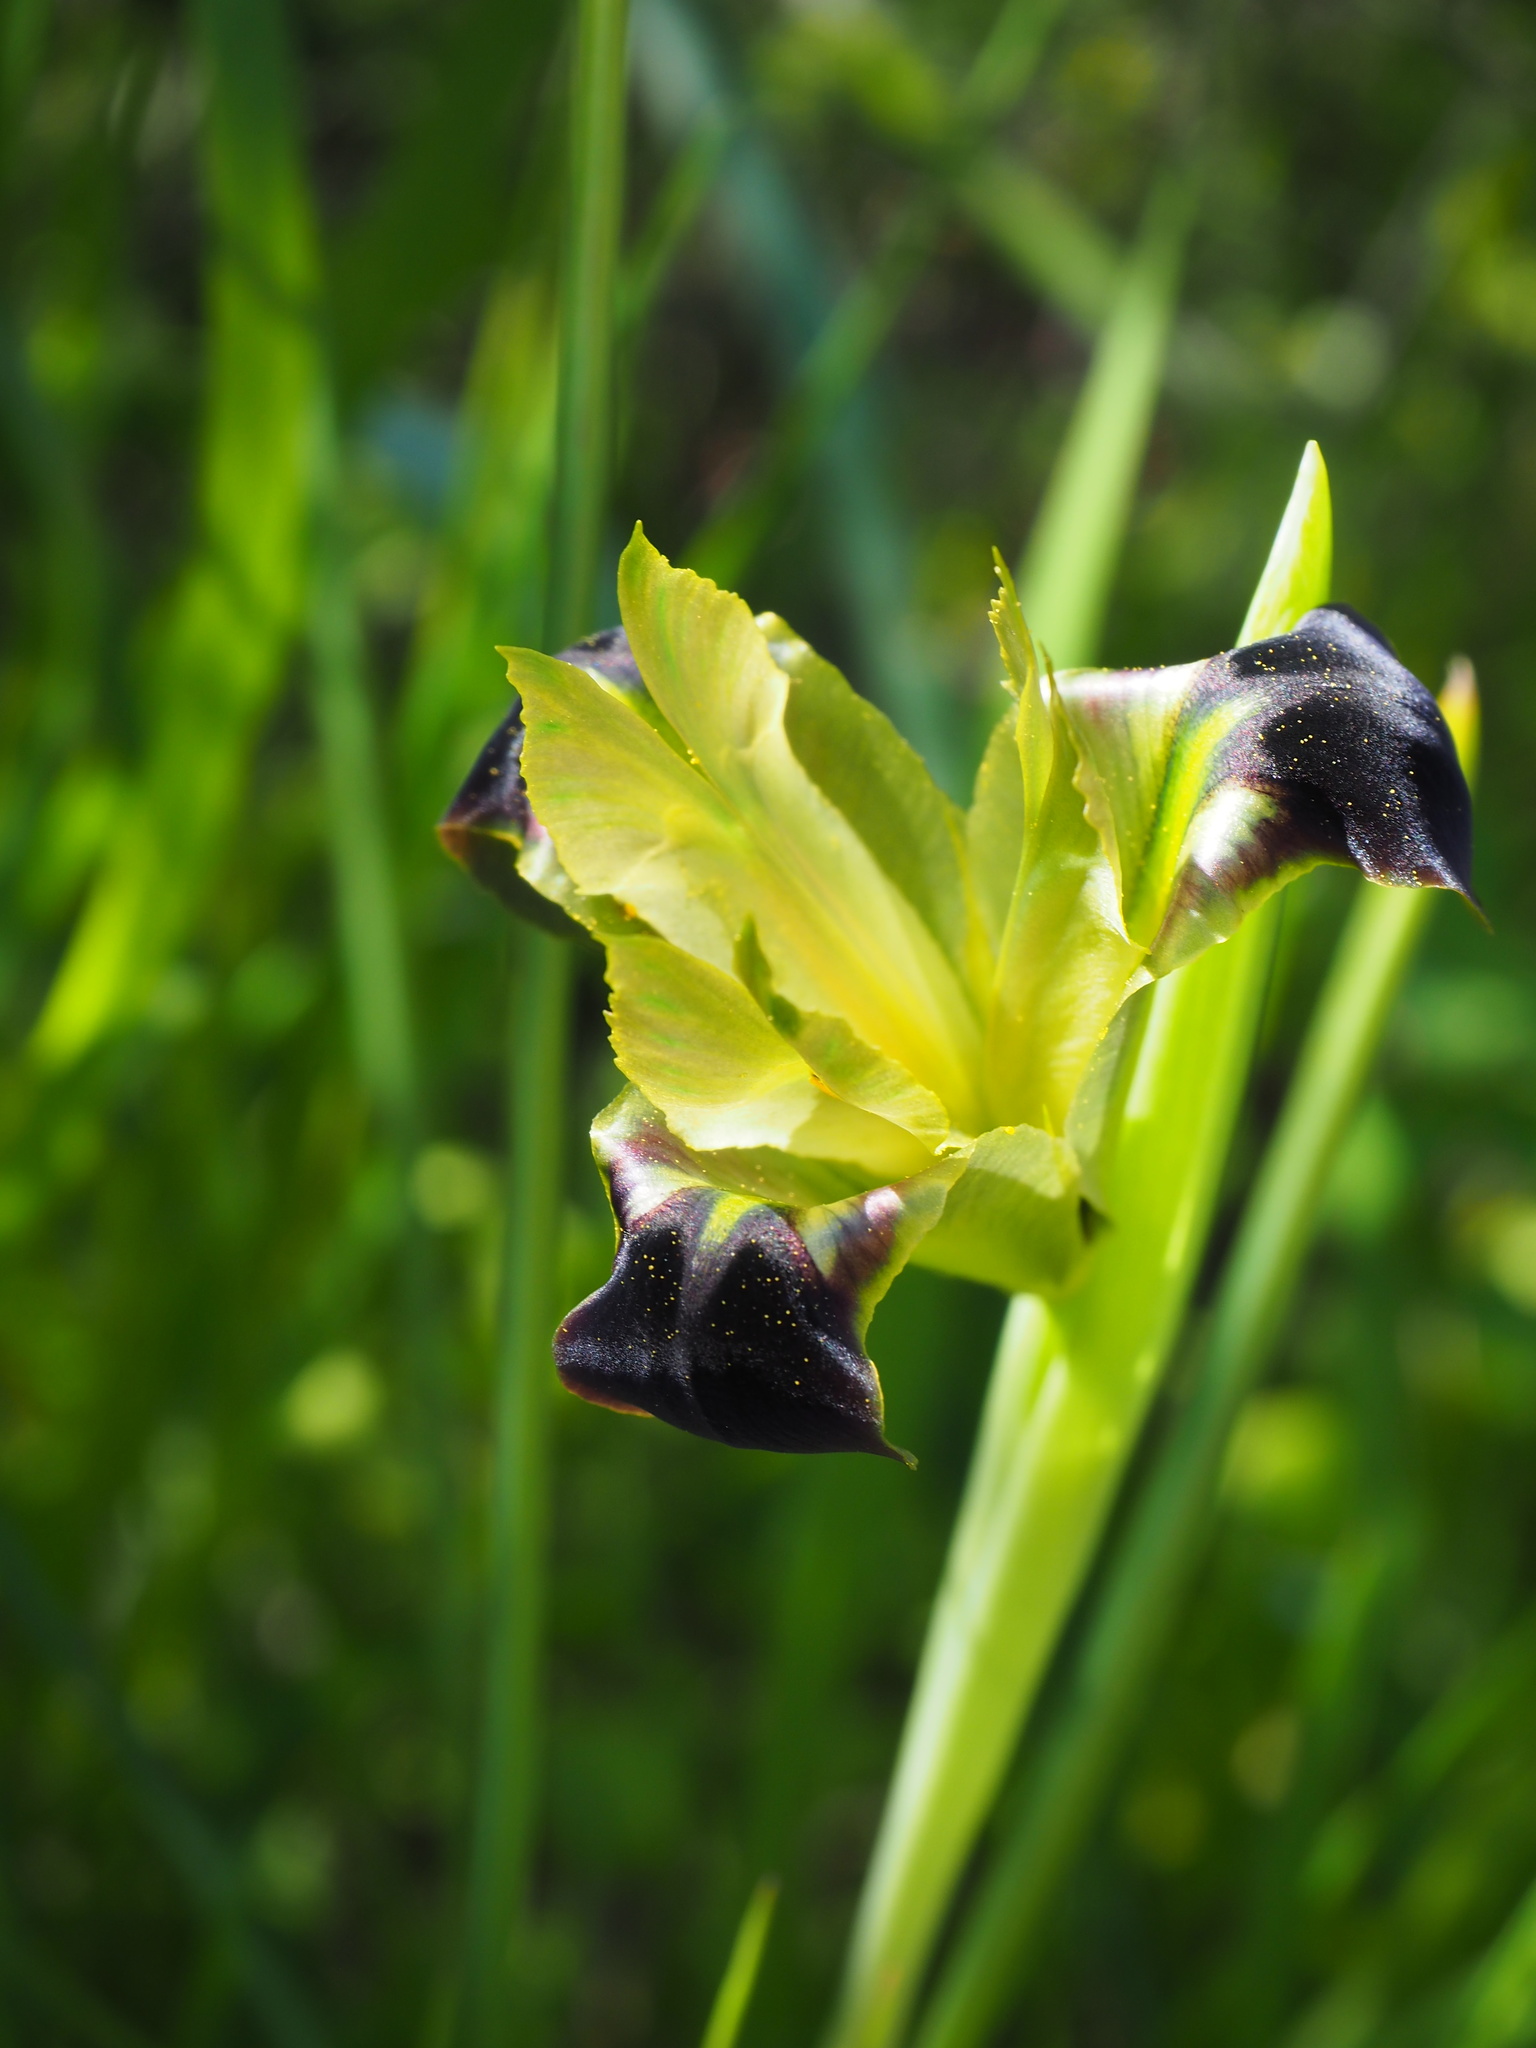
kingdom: Plantae
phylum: Tracheophyta
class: Liliopsida
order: Asparagales
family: Iridaceae
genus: Iris
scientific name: Iris tuberosa
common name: Snake's-head iris
